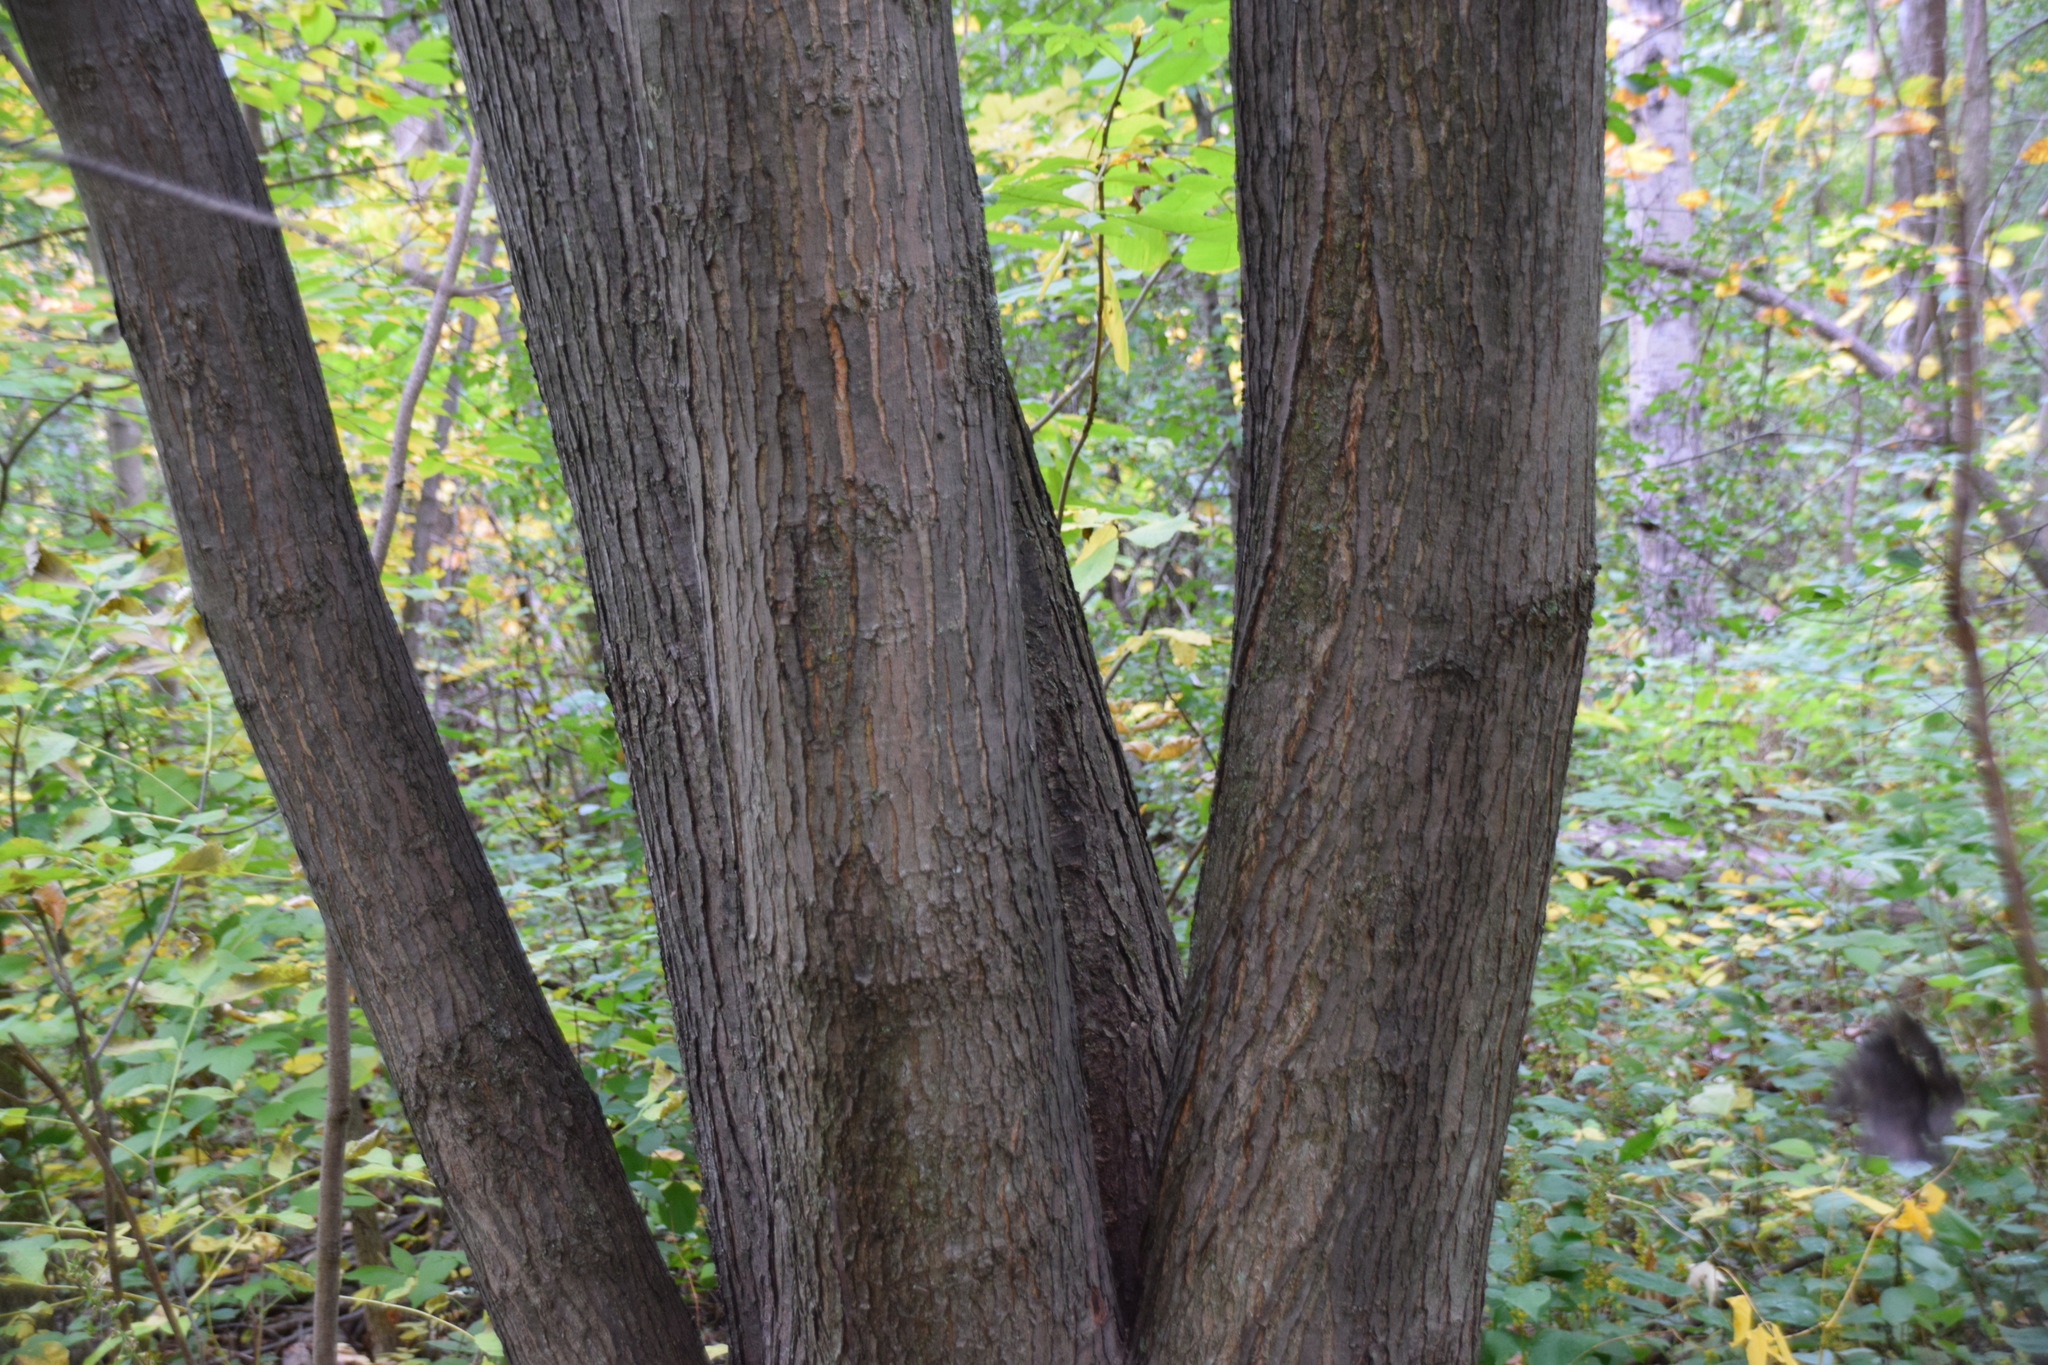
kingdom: Plantae
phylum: Tracheophyta
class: Magnoliopsida
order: Sapindales
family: Sapindaceae
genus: Acer
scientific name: Acer saccharinum
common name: Silver maple
